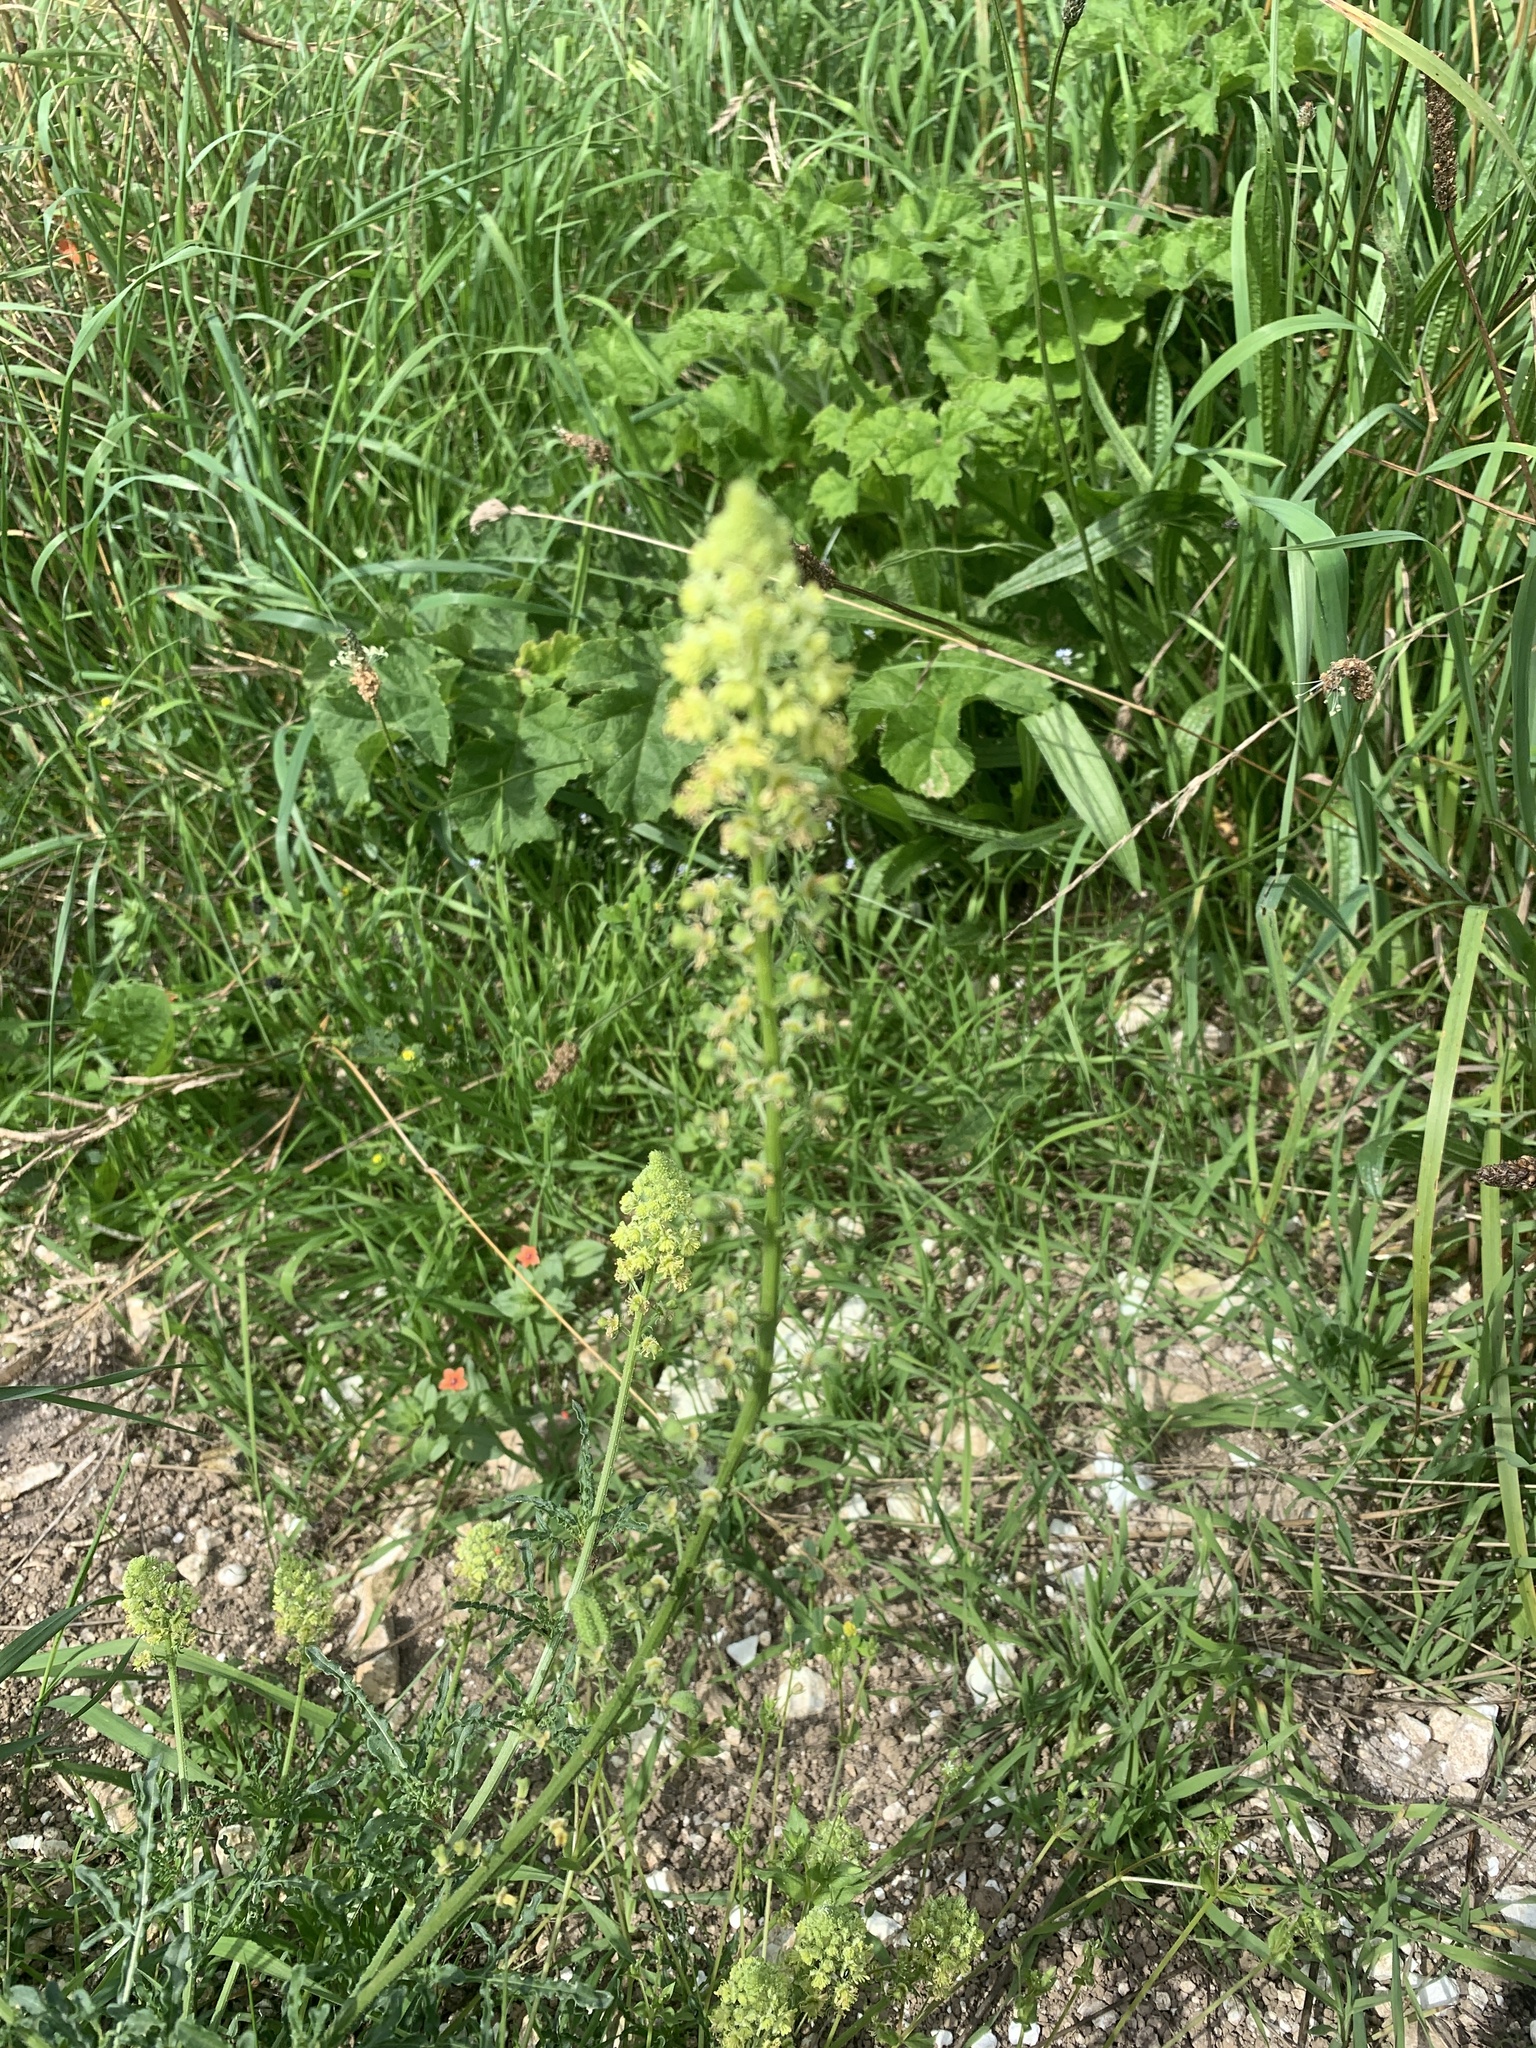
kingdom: Plantae
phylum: Tracheophyta
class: Magnoliopsida
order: Brassicales
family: Resedaceae
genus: Reseda
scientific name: Reseda lutea
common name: Wild mignonette
